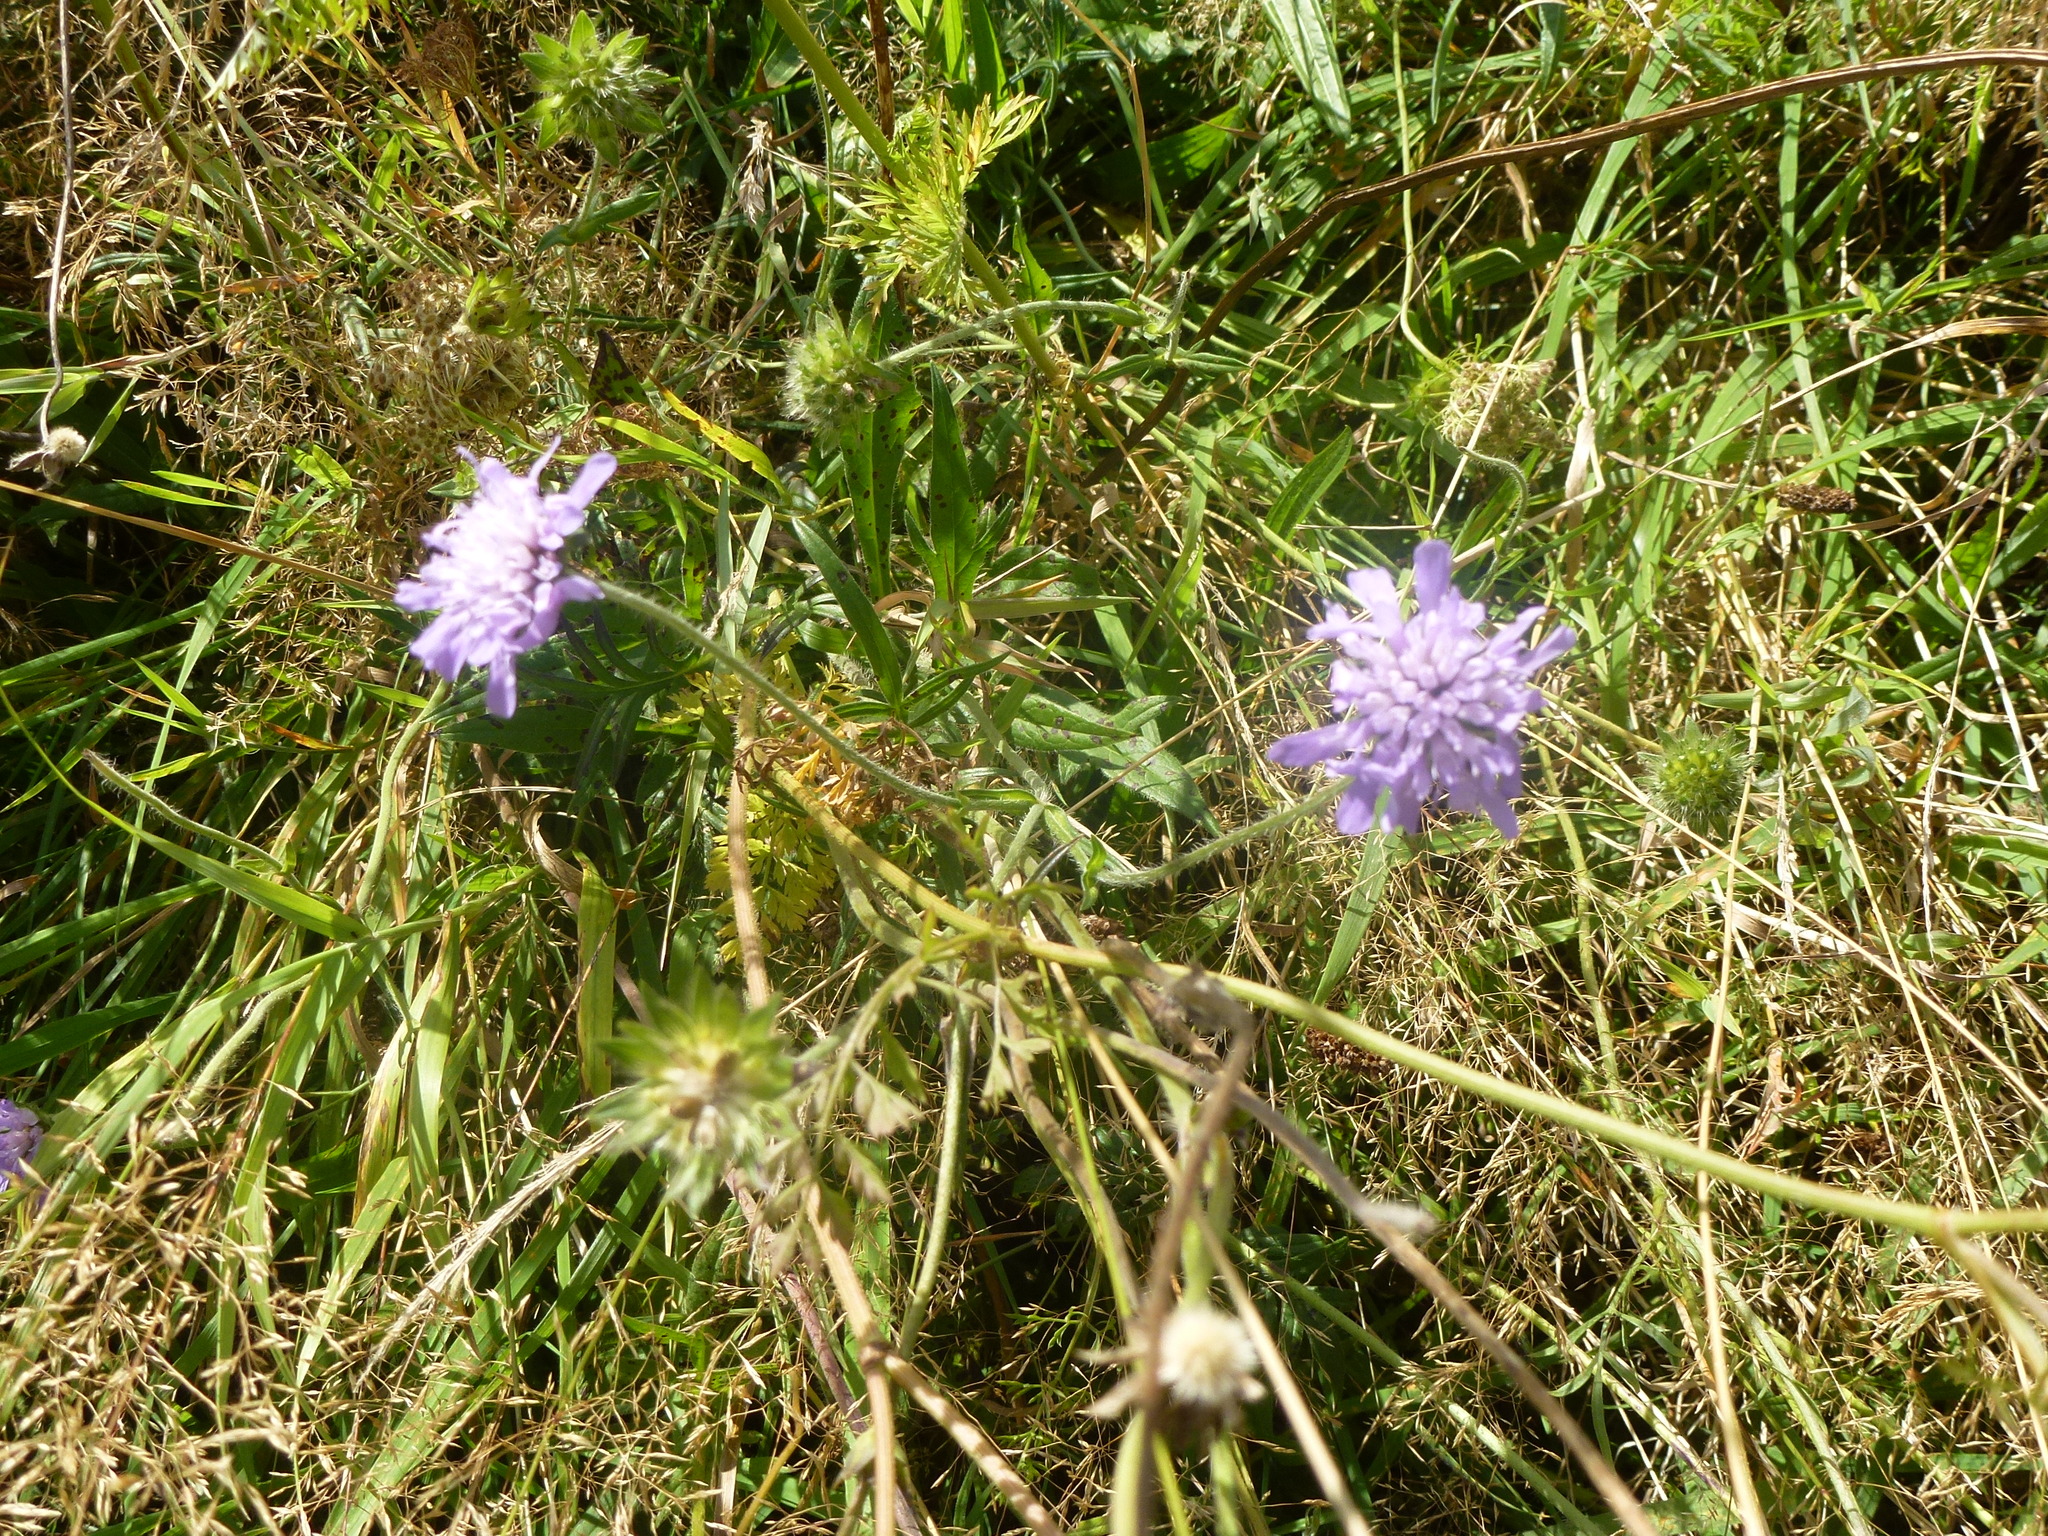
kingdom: Plantae
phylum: Tracheophyta
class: Magnoliopsida
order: Dipsacales
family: Caprifoliaceae
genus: Knautia
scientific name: Knautia arvensis
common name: Field scabiosa
